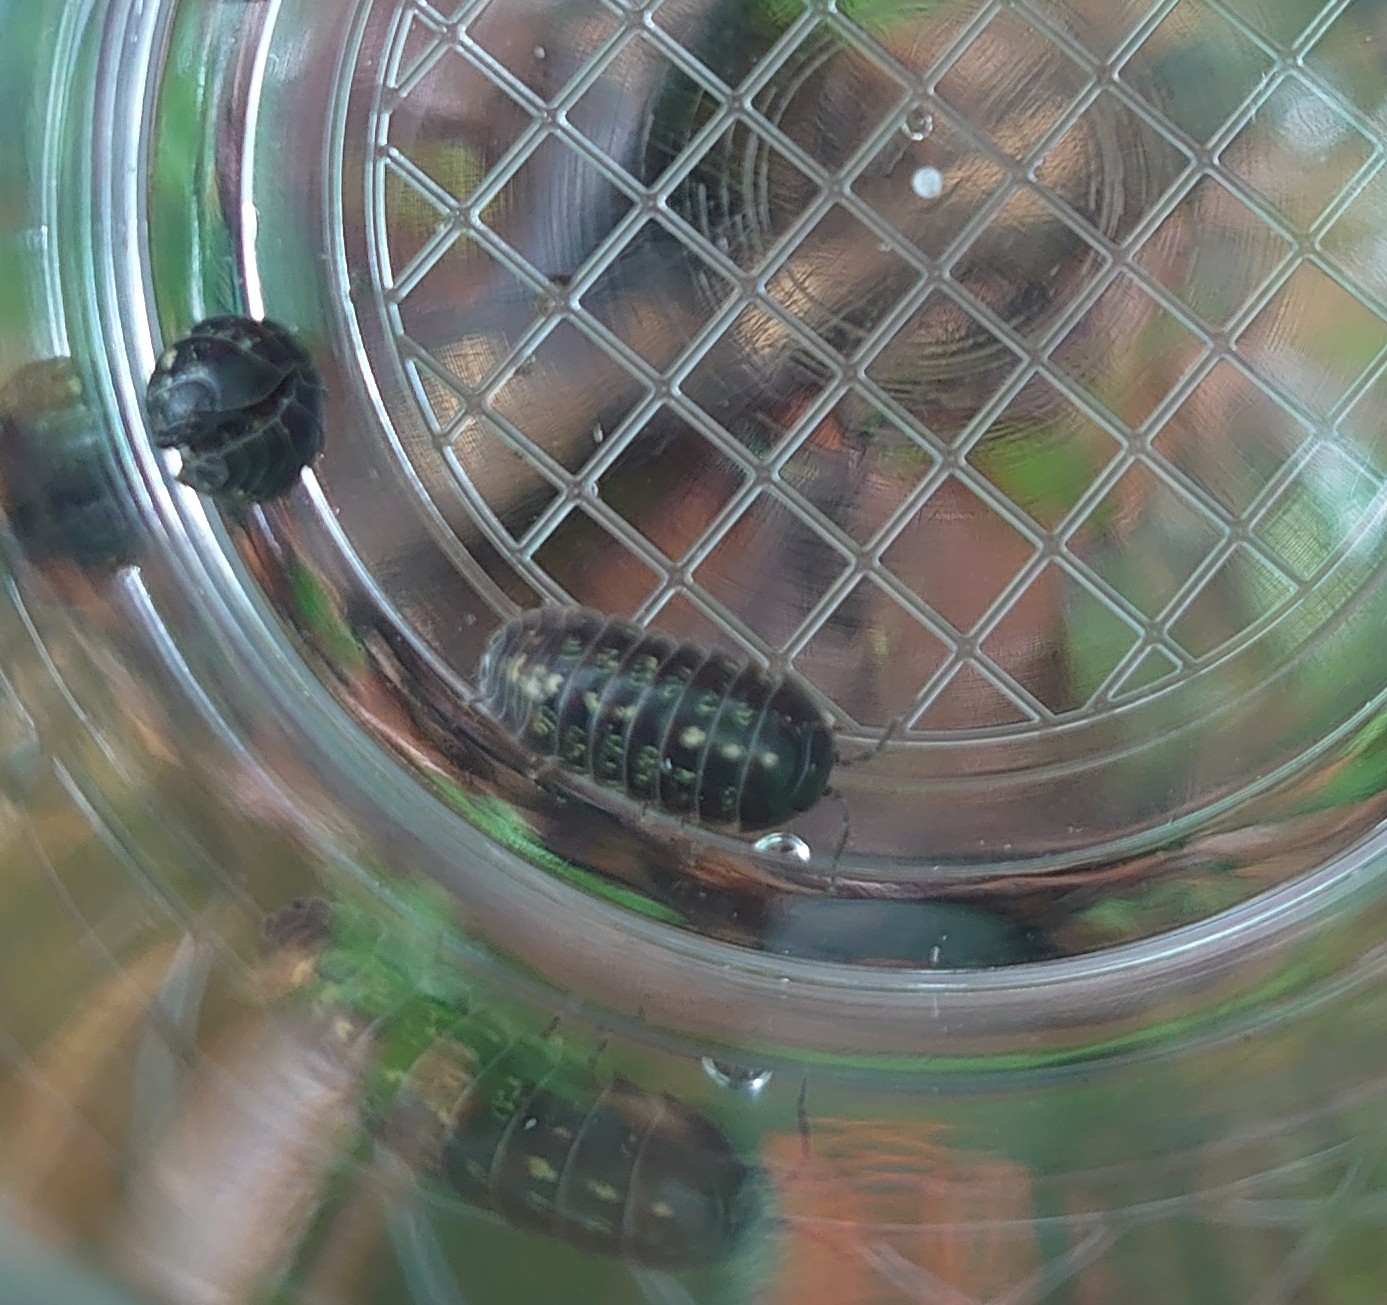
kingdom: Animalia
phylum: Arthropoda
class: Malacostraca
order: Isopoda
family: Armadillidiidae
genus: Armadillidium
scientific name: Armadillidium vulgare
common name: Common pill woodlouse
